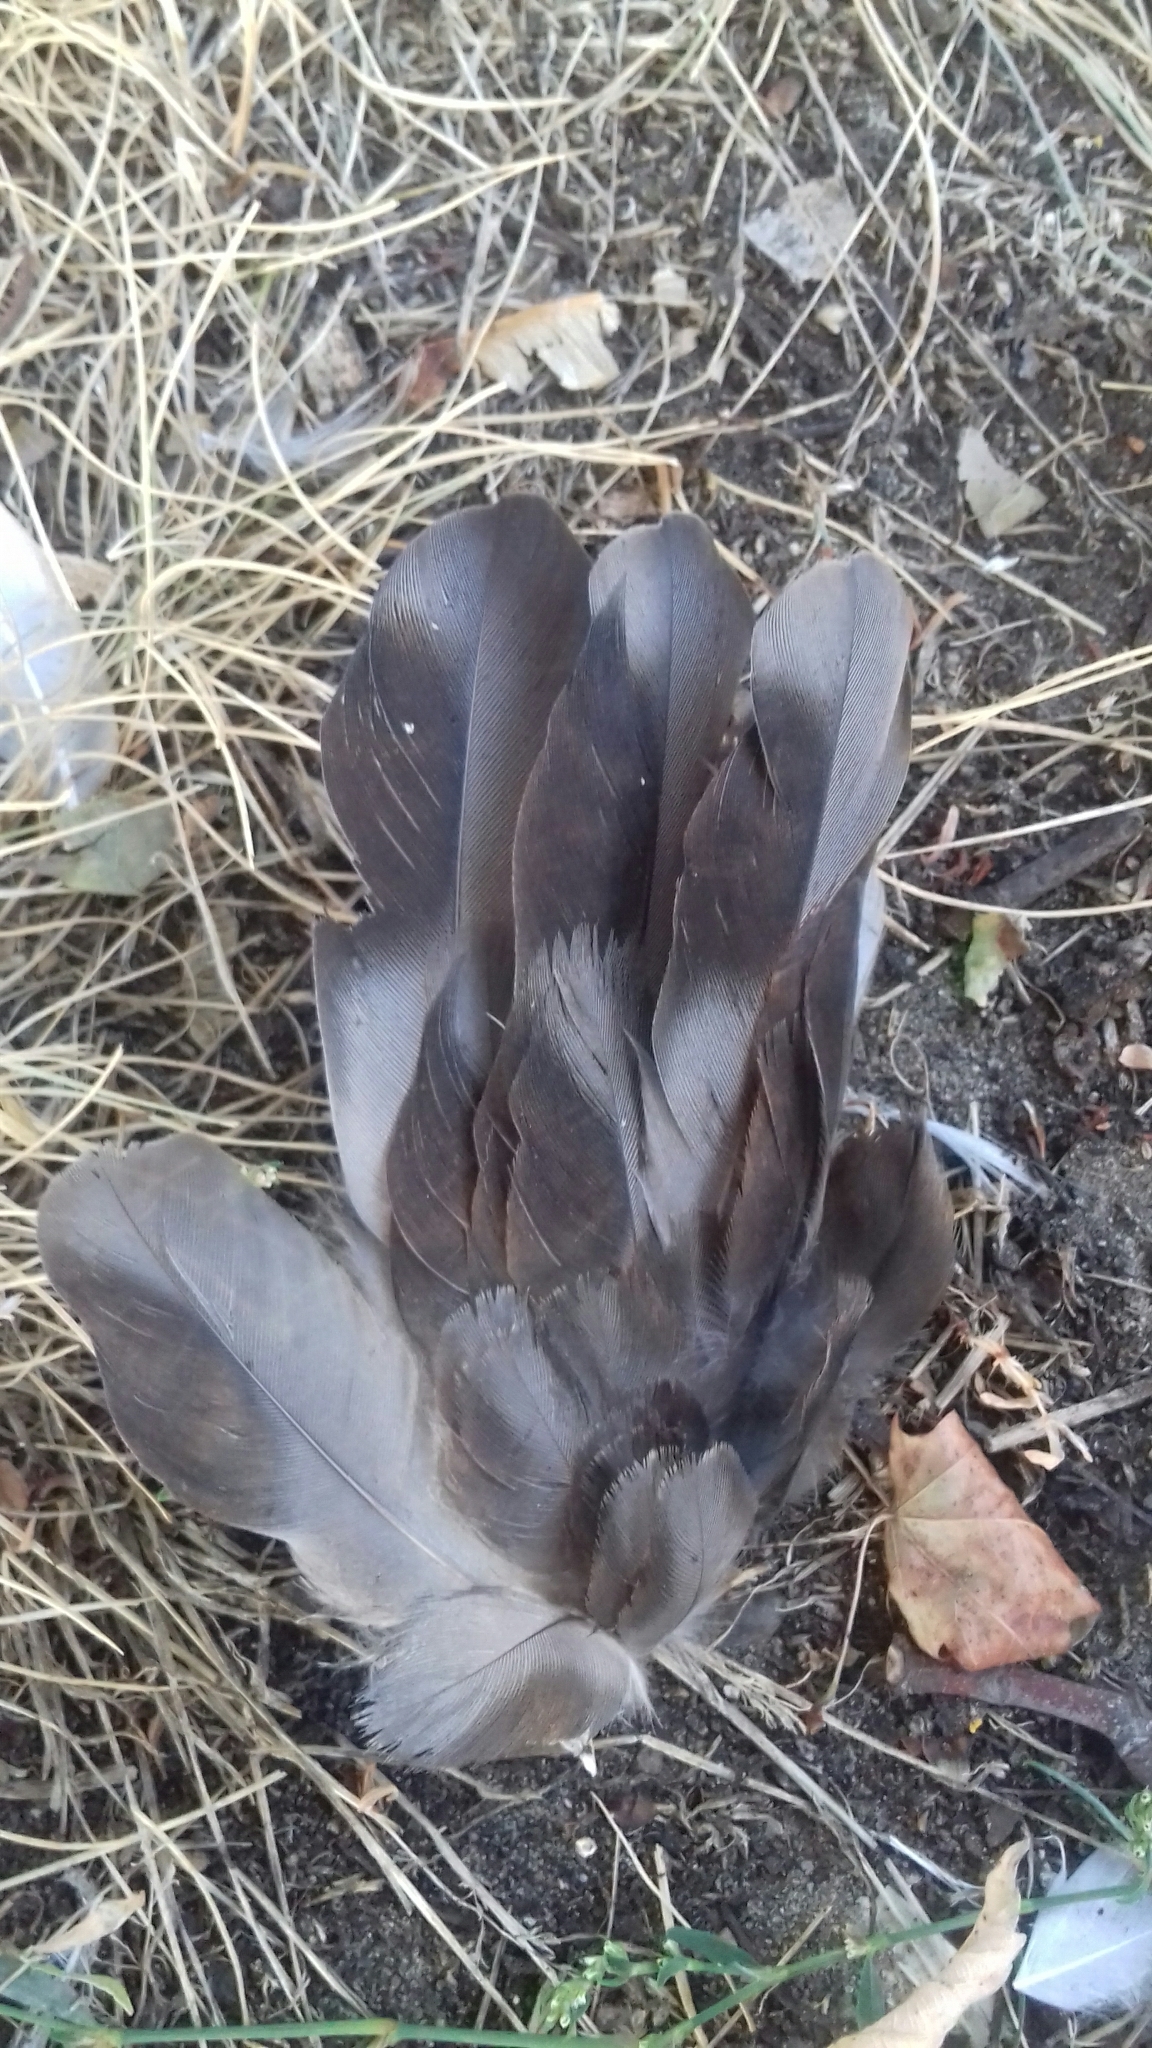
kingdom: Animalia
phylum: Chordata
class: Aves
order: Columbiformes
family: Columbidae
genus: Columba
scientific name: Columba livia
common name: Rock pigeon
